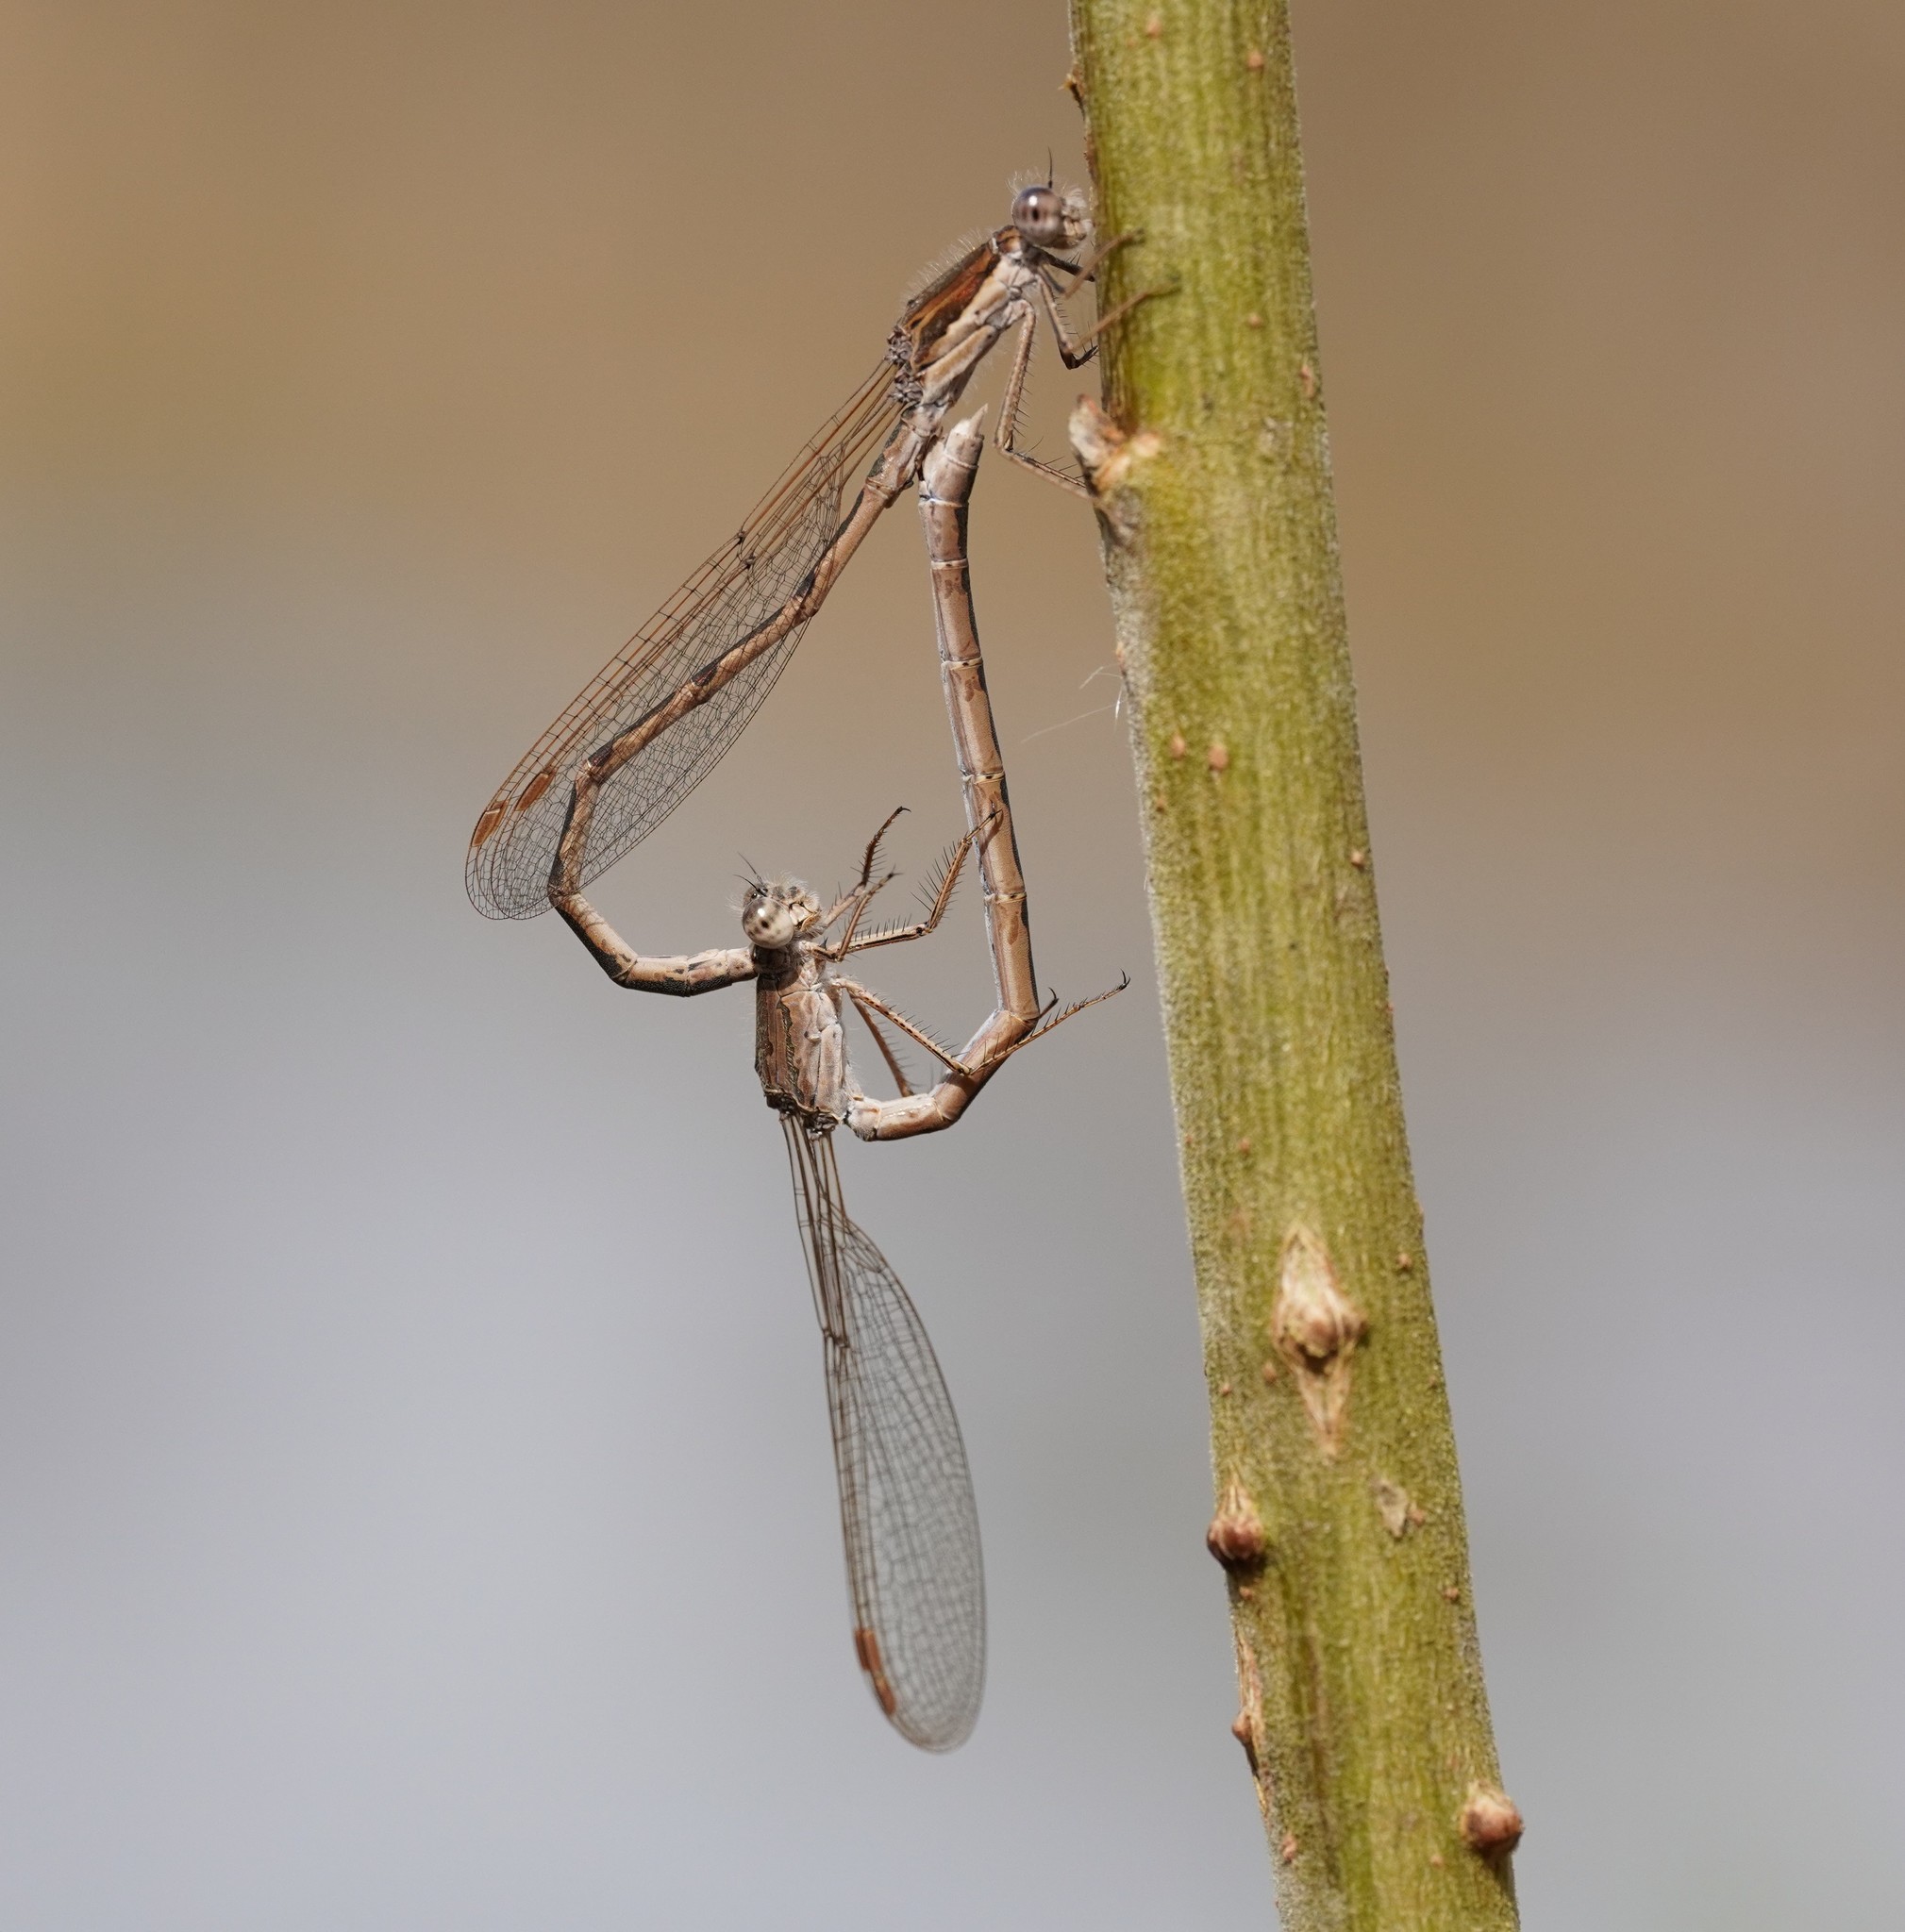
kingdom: Animalia
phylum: Arthropoda
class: Insecta
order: Odonata
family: Lestidae
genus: Sympecma
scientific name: Sympecma fusca
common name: Common winter damsel
